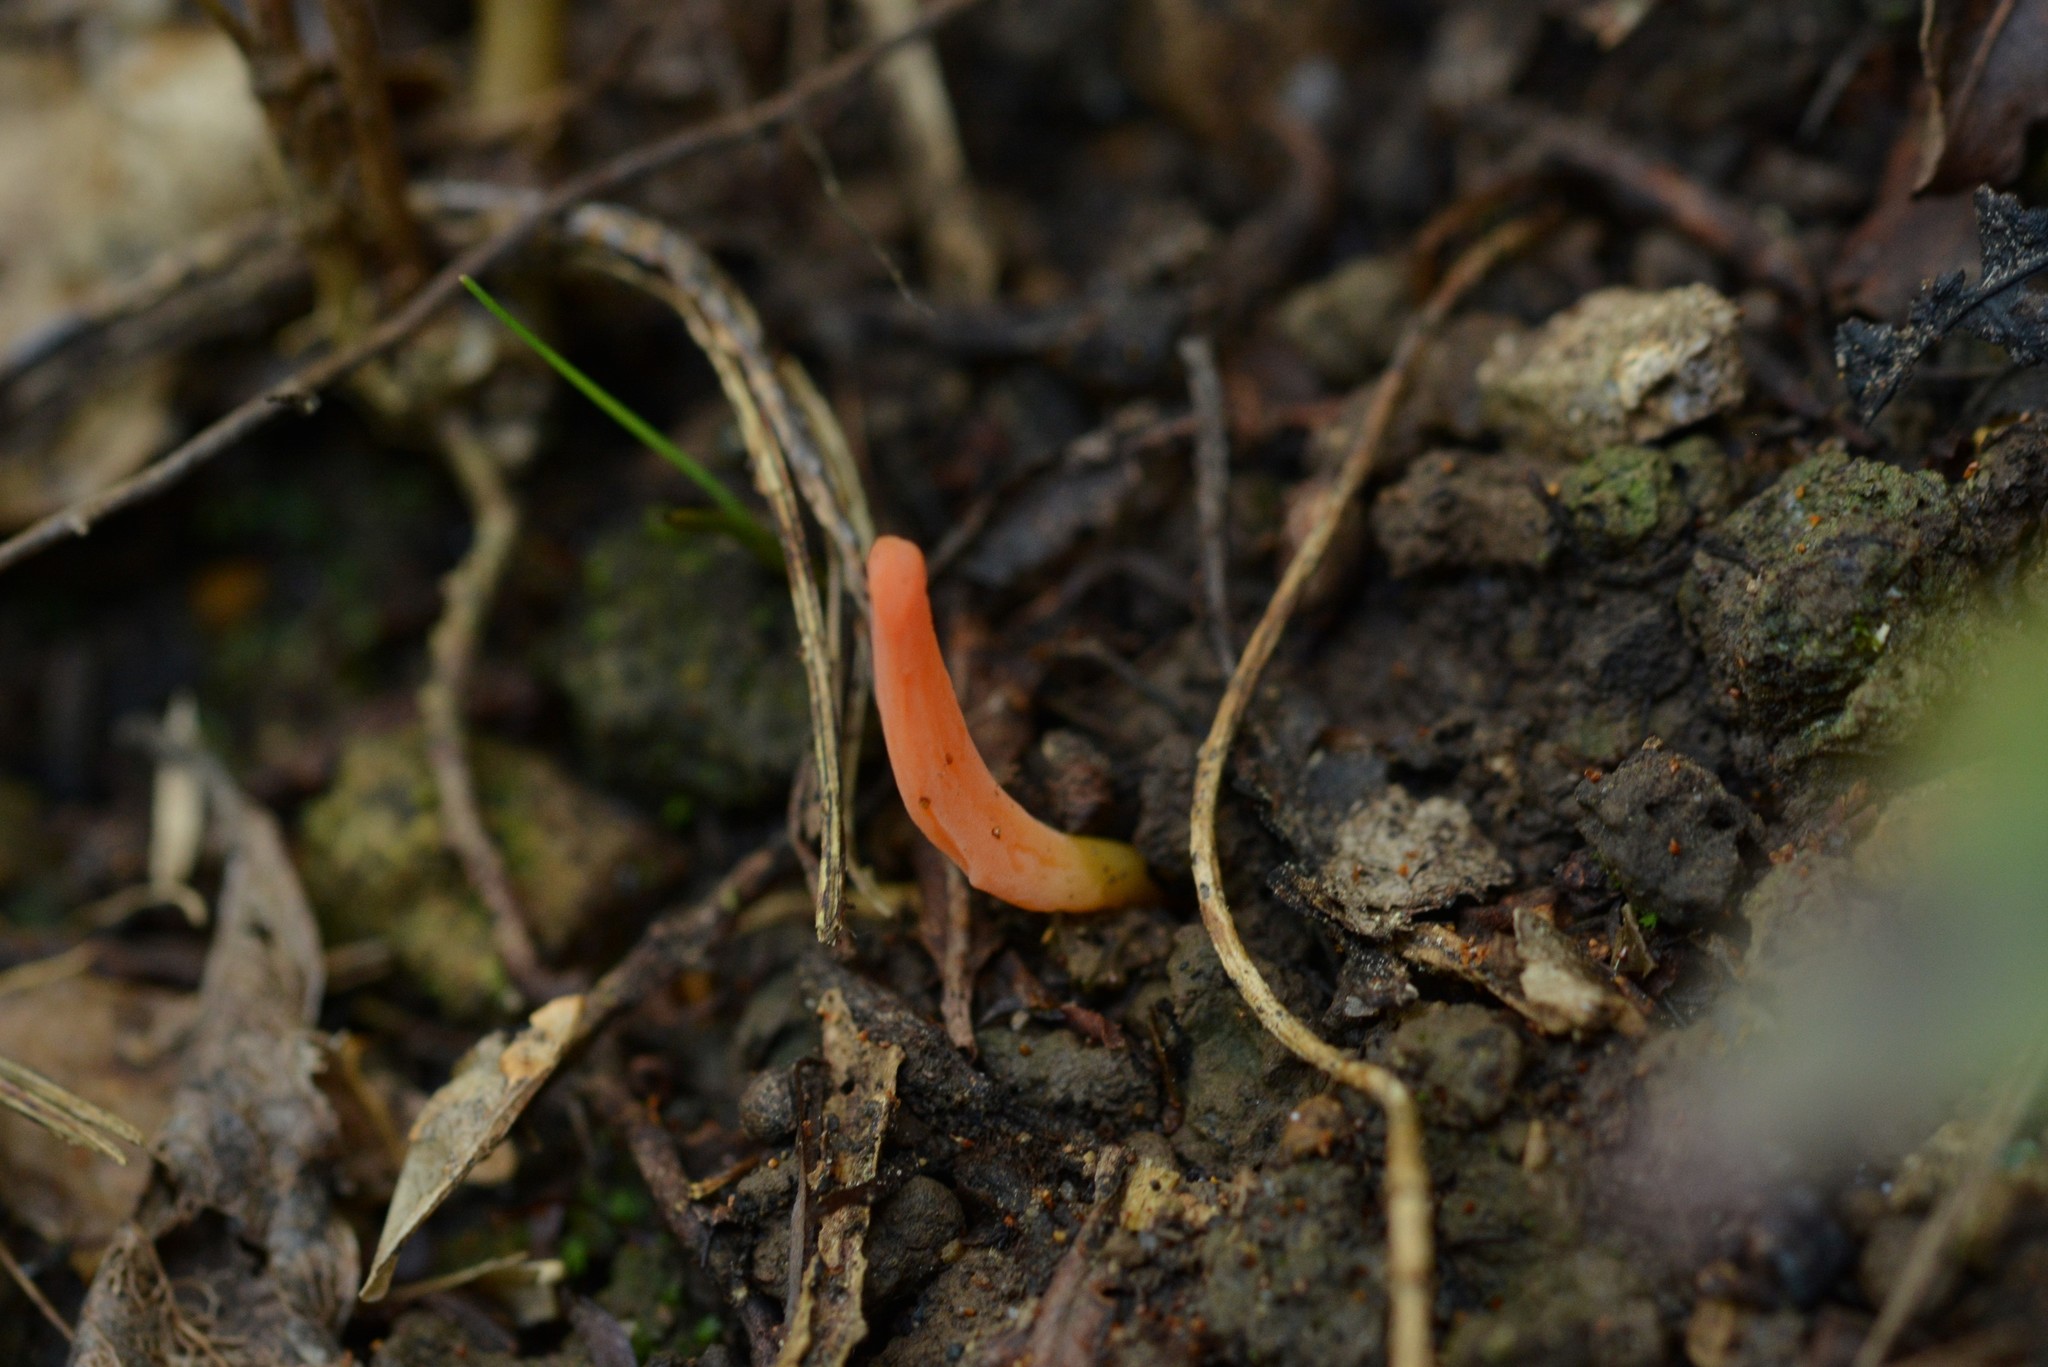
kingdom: Fungi
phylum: Basidiomycota
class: Agaricomycetes
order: Agaricales
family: Clavariaceae
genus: Clavulinopsis
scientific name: Clavulinopsis sulcata
